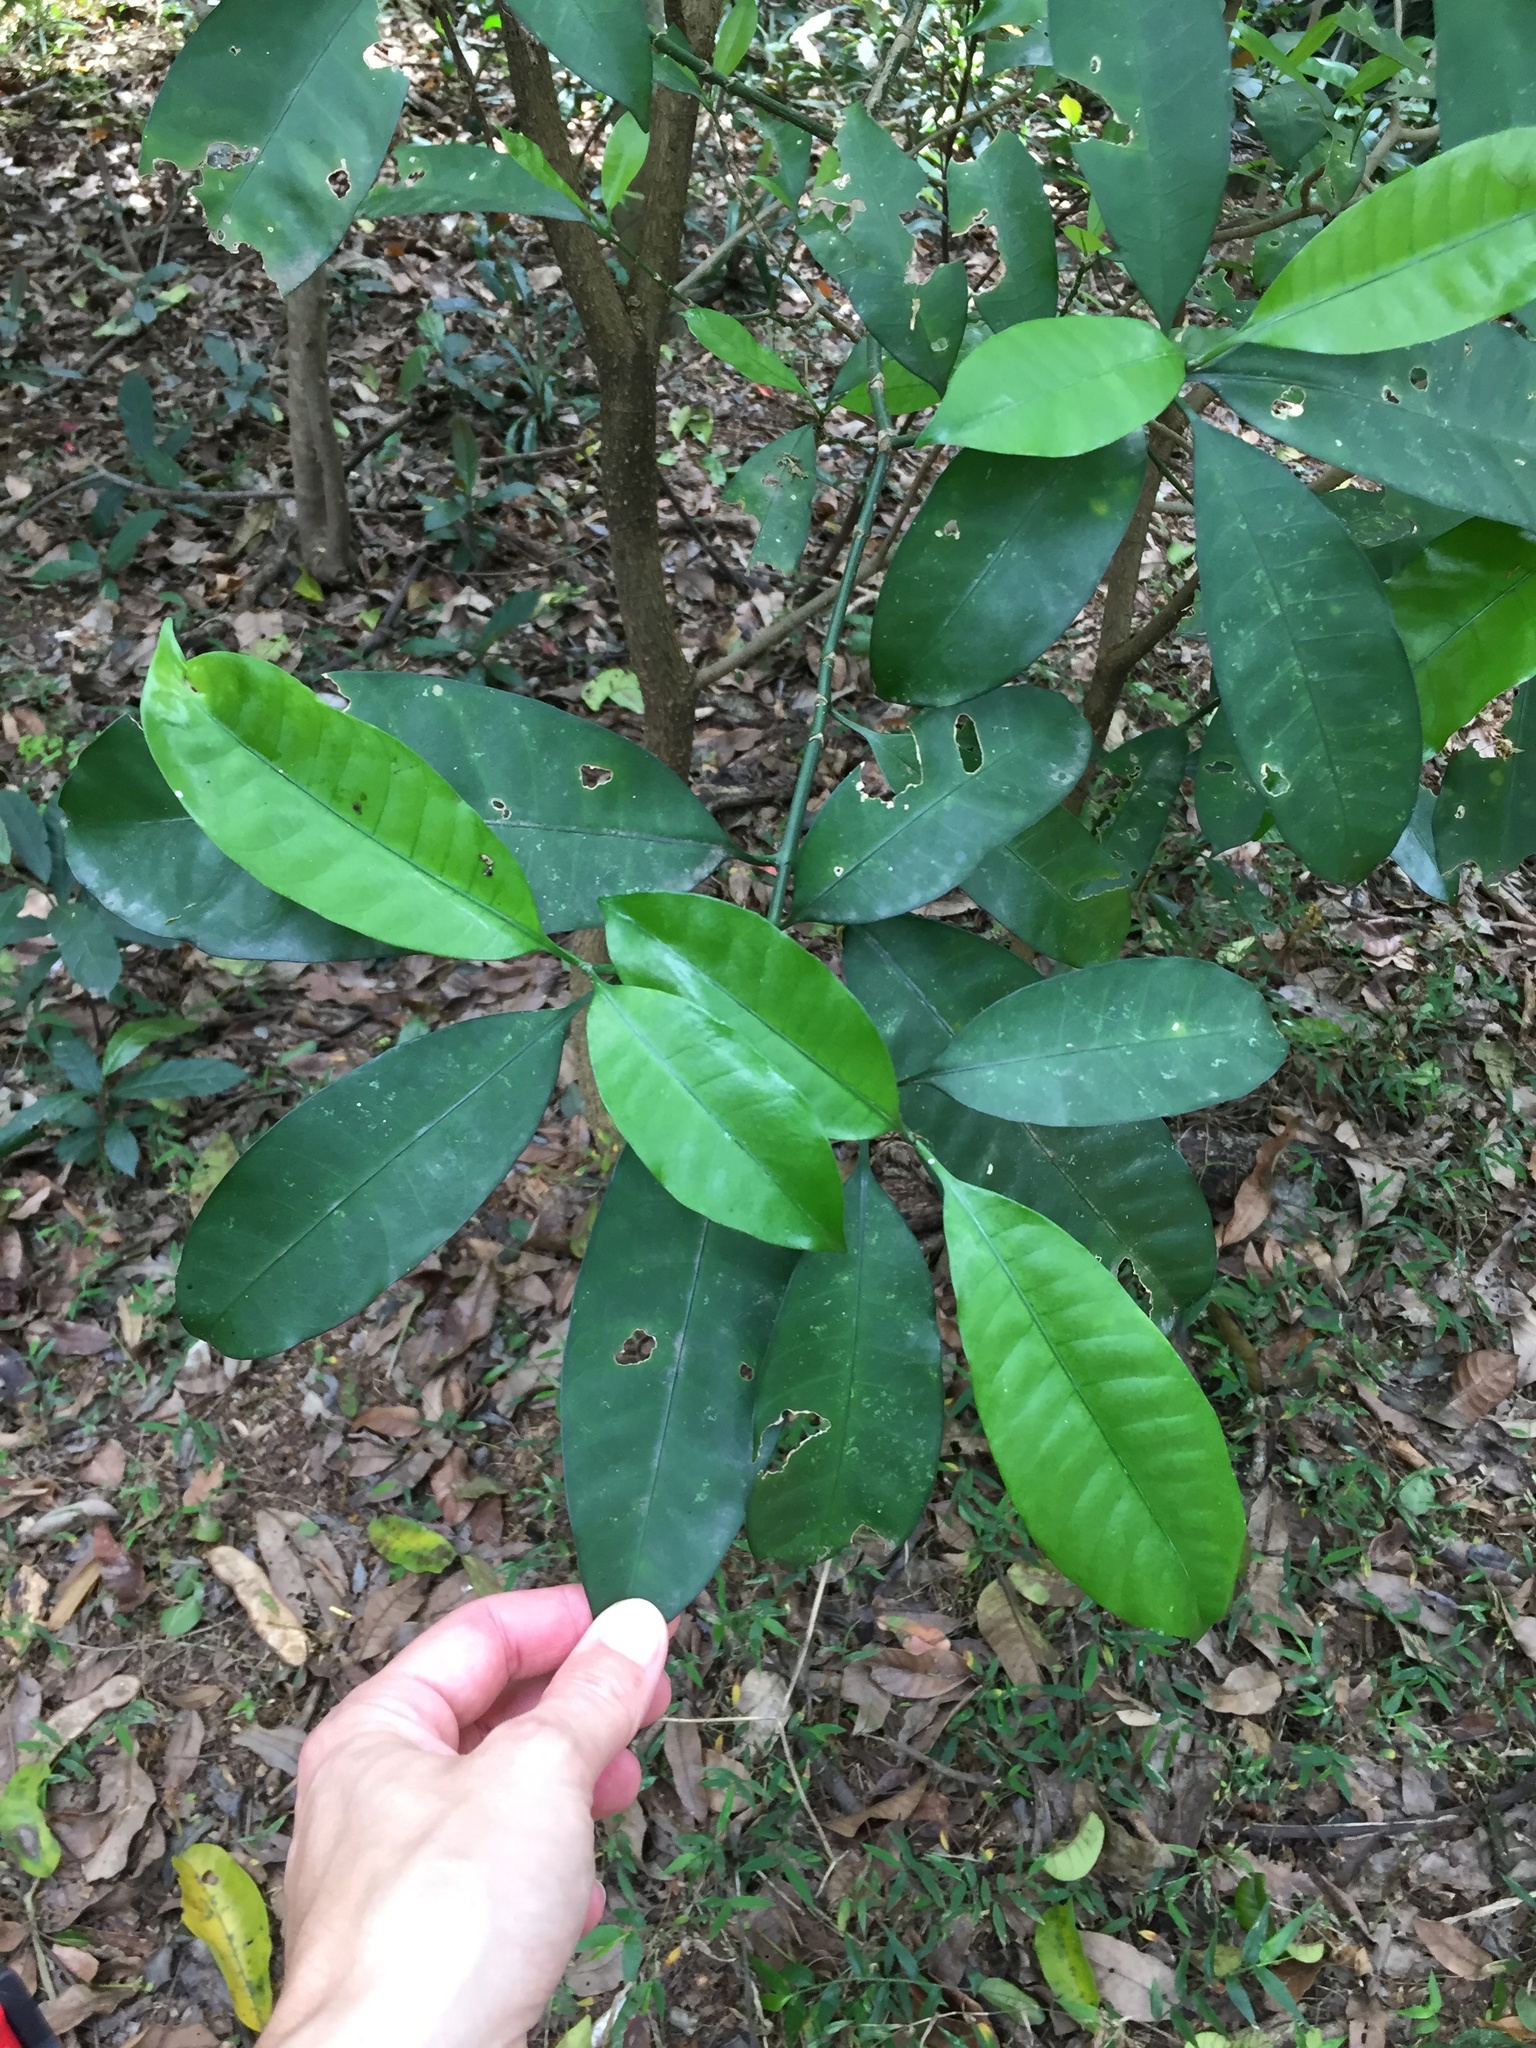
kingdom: Plantae
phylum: Tracheophyta
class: Magnoliopsida
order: Gentianales
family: Apocynaceae
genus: Tabernaemontana
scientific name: Tabernaemontana ventricosa
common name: Forest toad-tree
